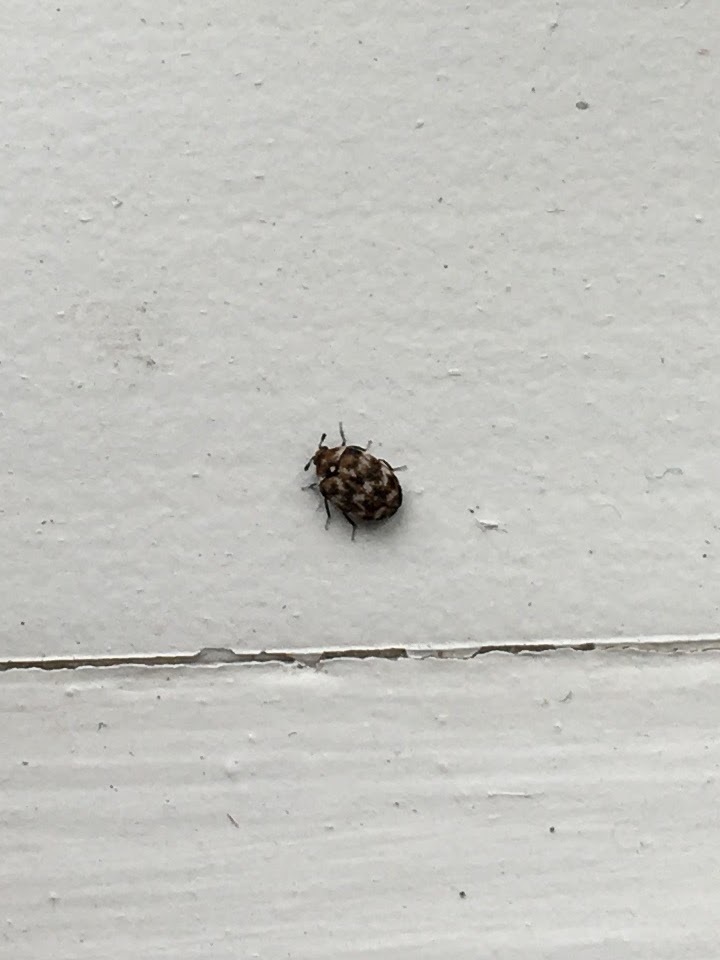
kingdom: Animalia
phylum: Arthropoda
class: Insecta
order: Coleoptera
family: Dermestidae
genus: Anthrenus
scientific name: Anthrenus verbasci
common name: Varied carpet beetle
